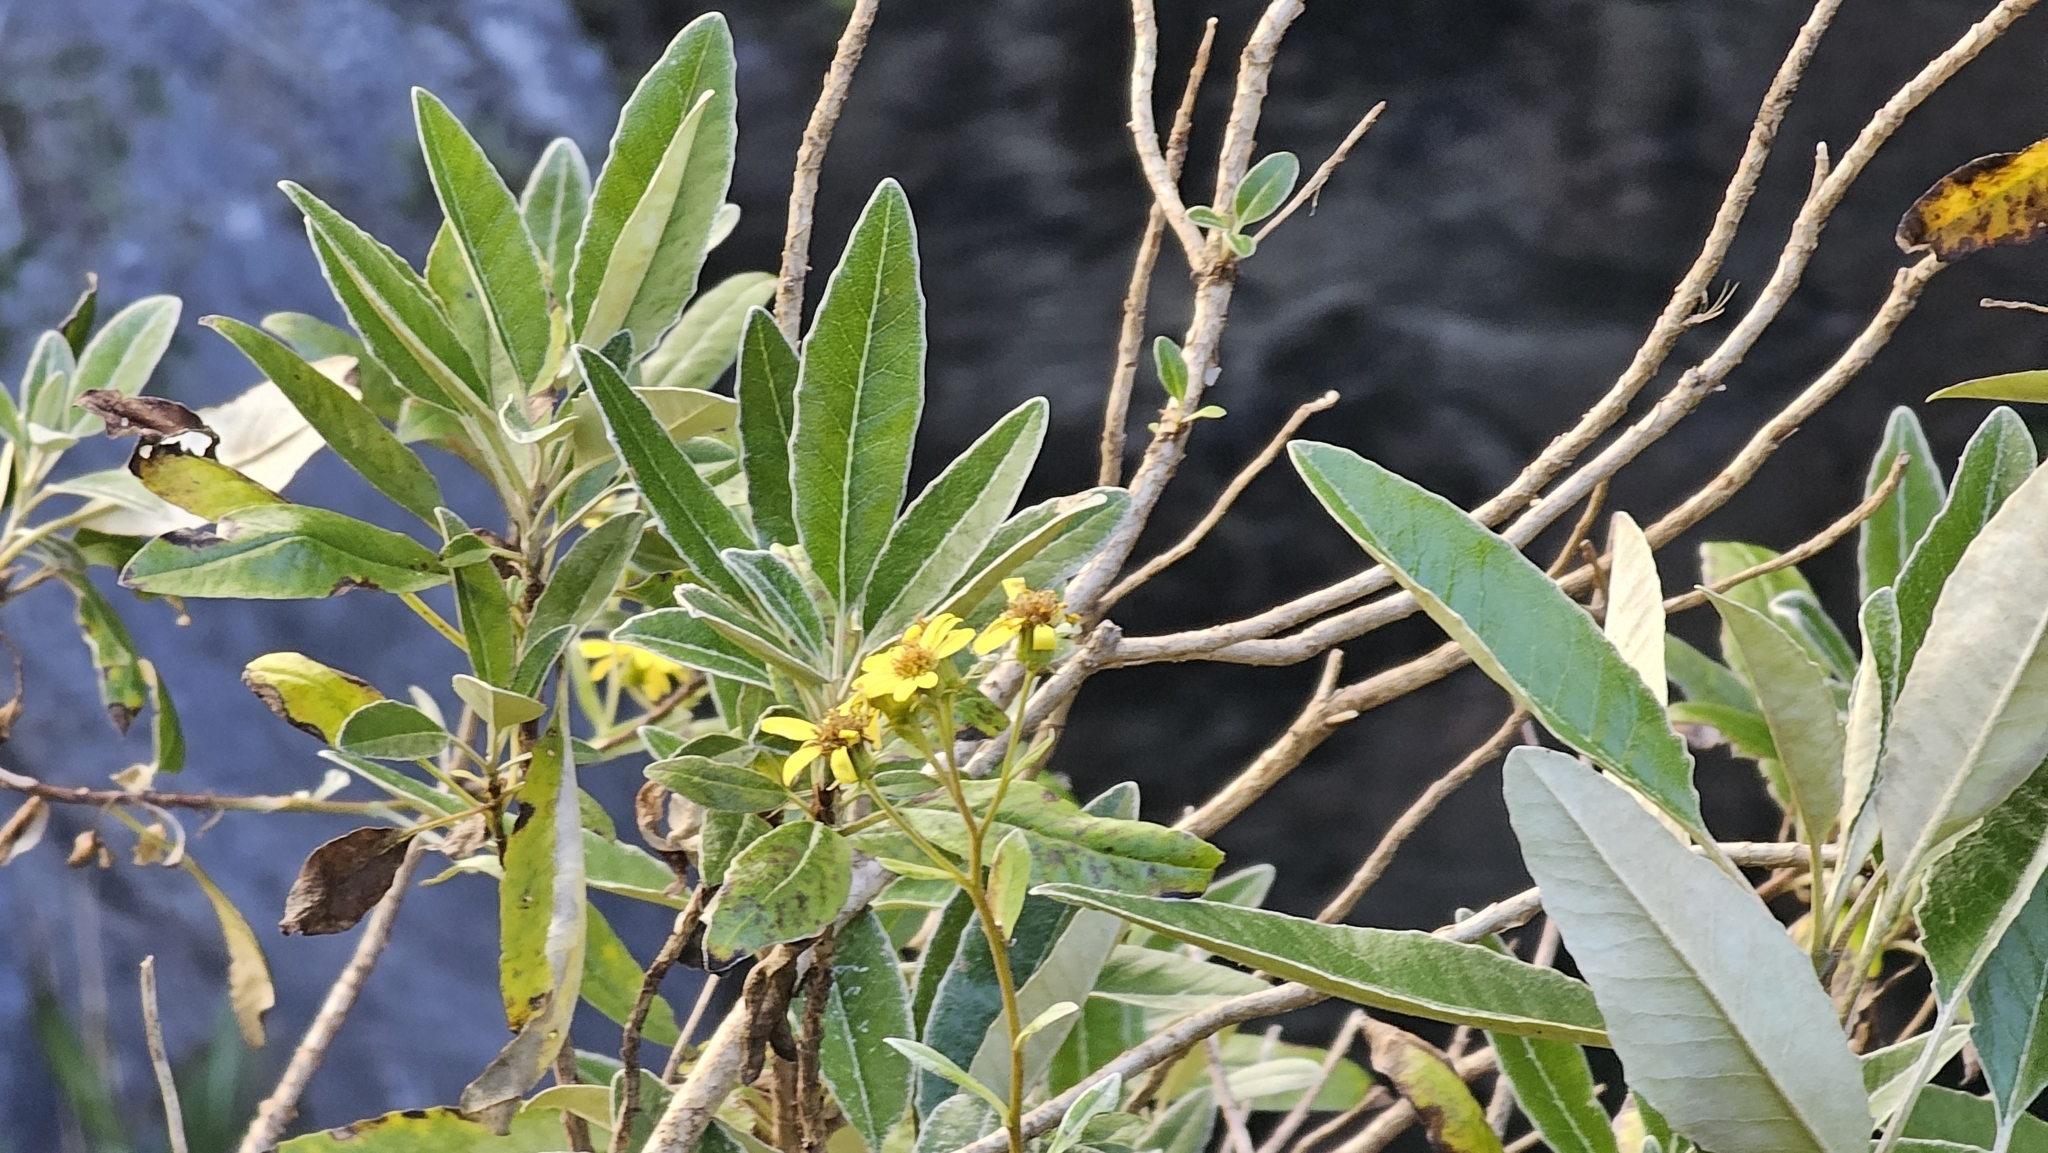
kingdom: Plantae
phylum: Tracheophyta
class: Magnoliopsida
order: Asterales
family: Asteraceae
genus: Brachyglottis
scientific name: Brachyglottis laxifolia
